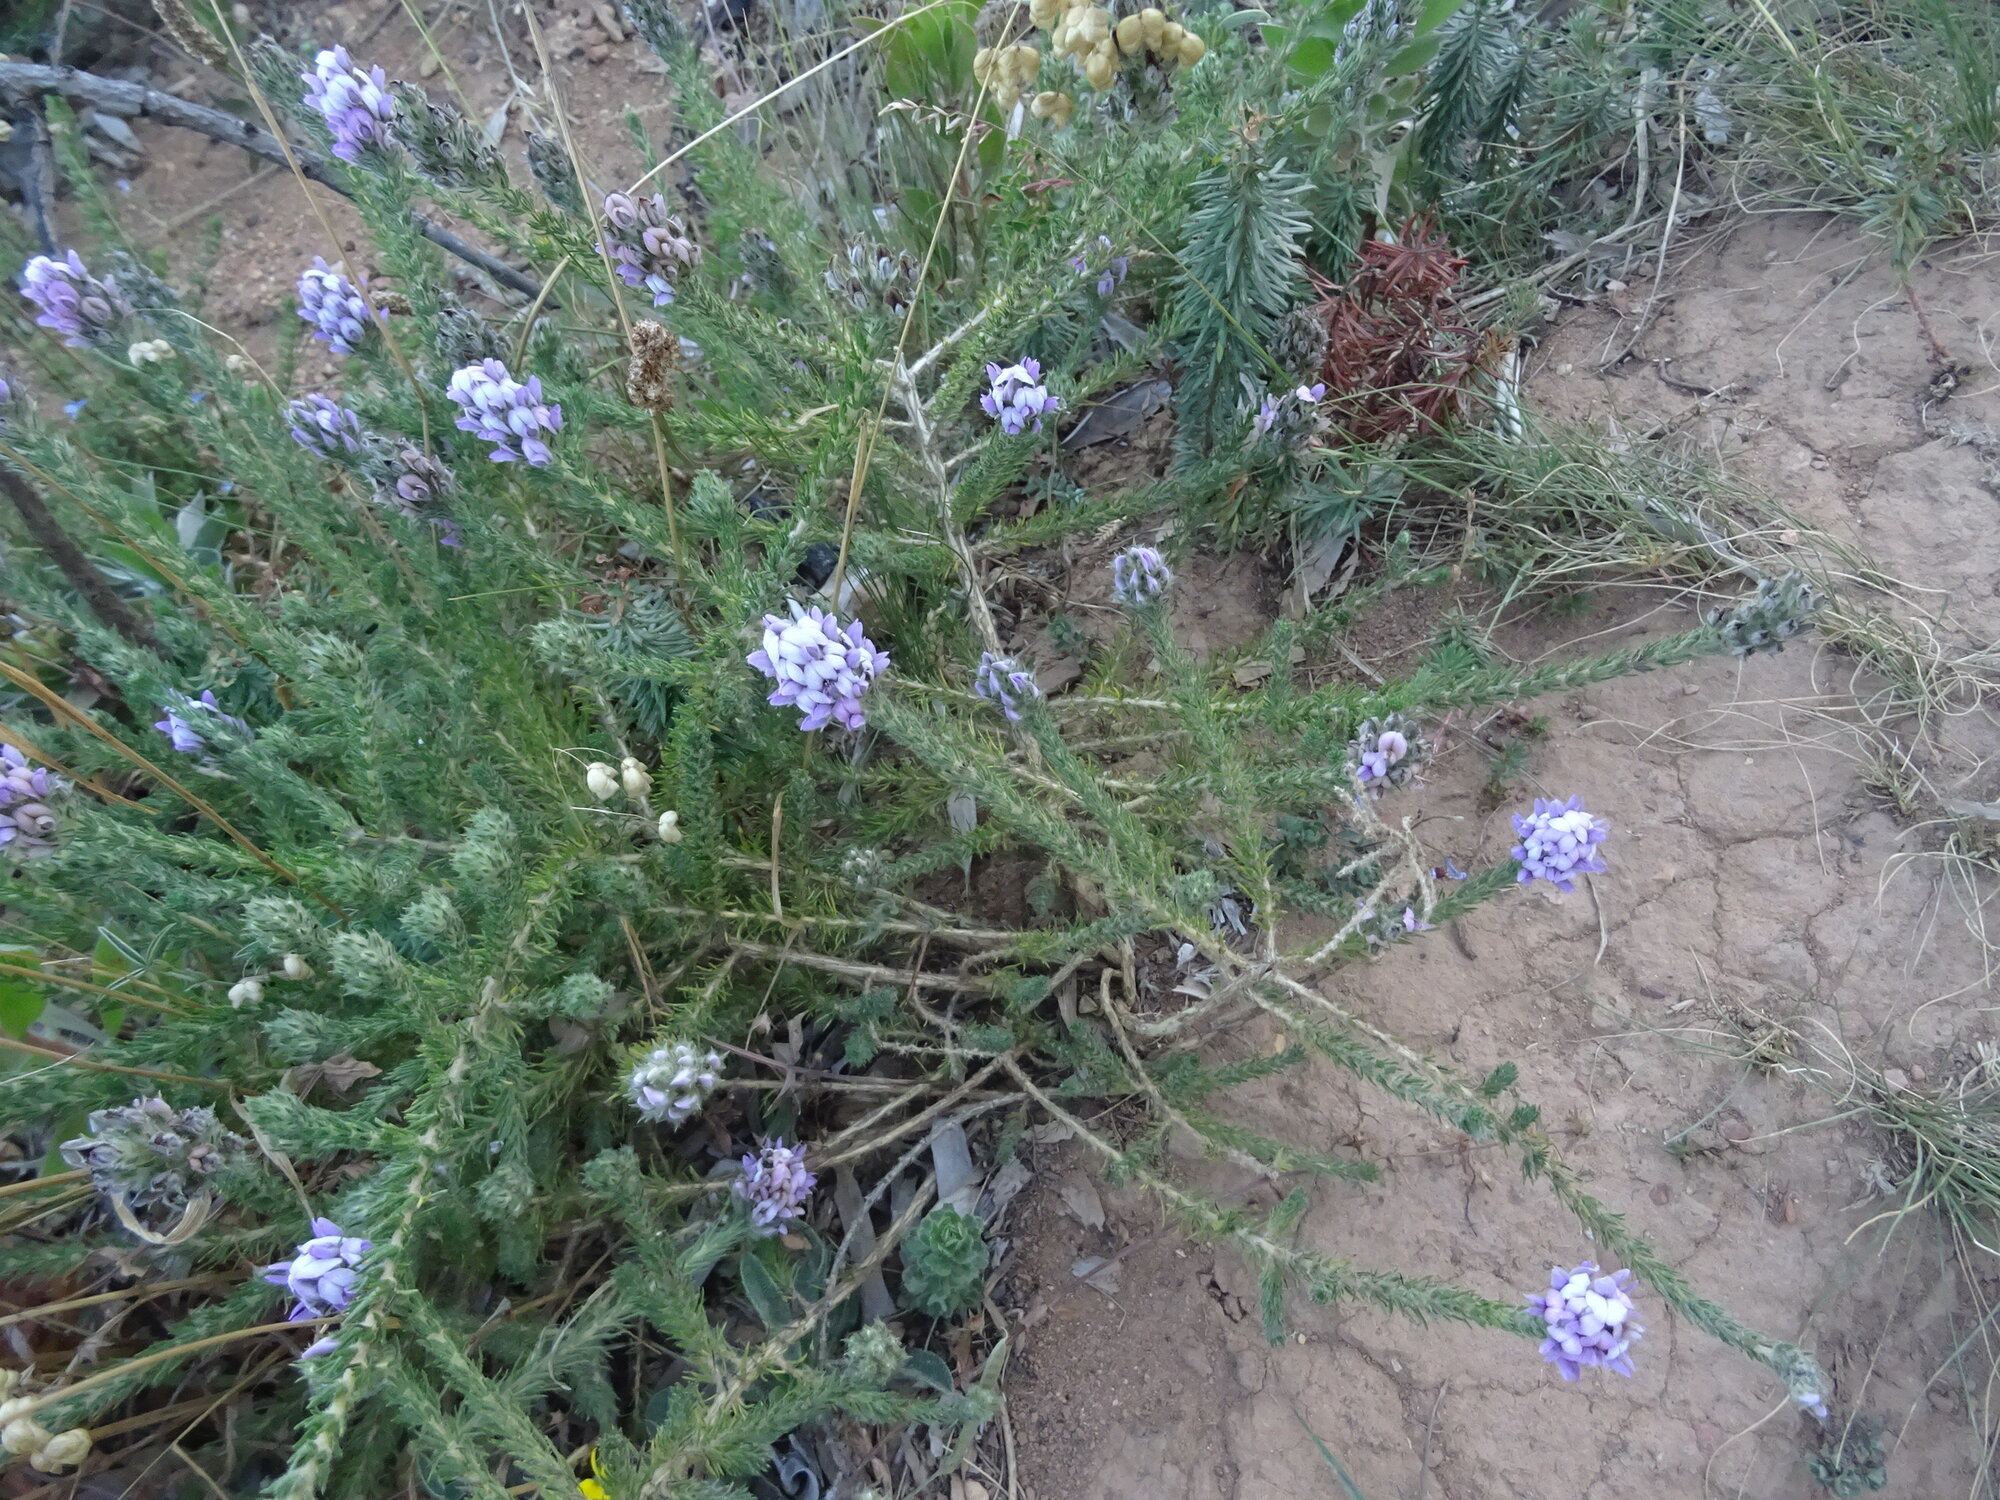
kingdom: Plantae
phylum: Tracheophyta
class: Magnoliopsida
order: Fabales
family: Fabaceae
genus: Aspalathus
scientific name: Aspalathus cephalotes
